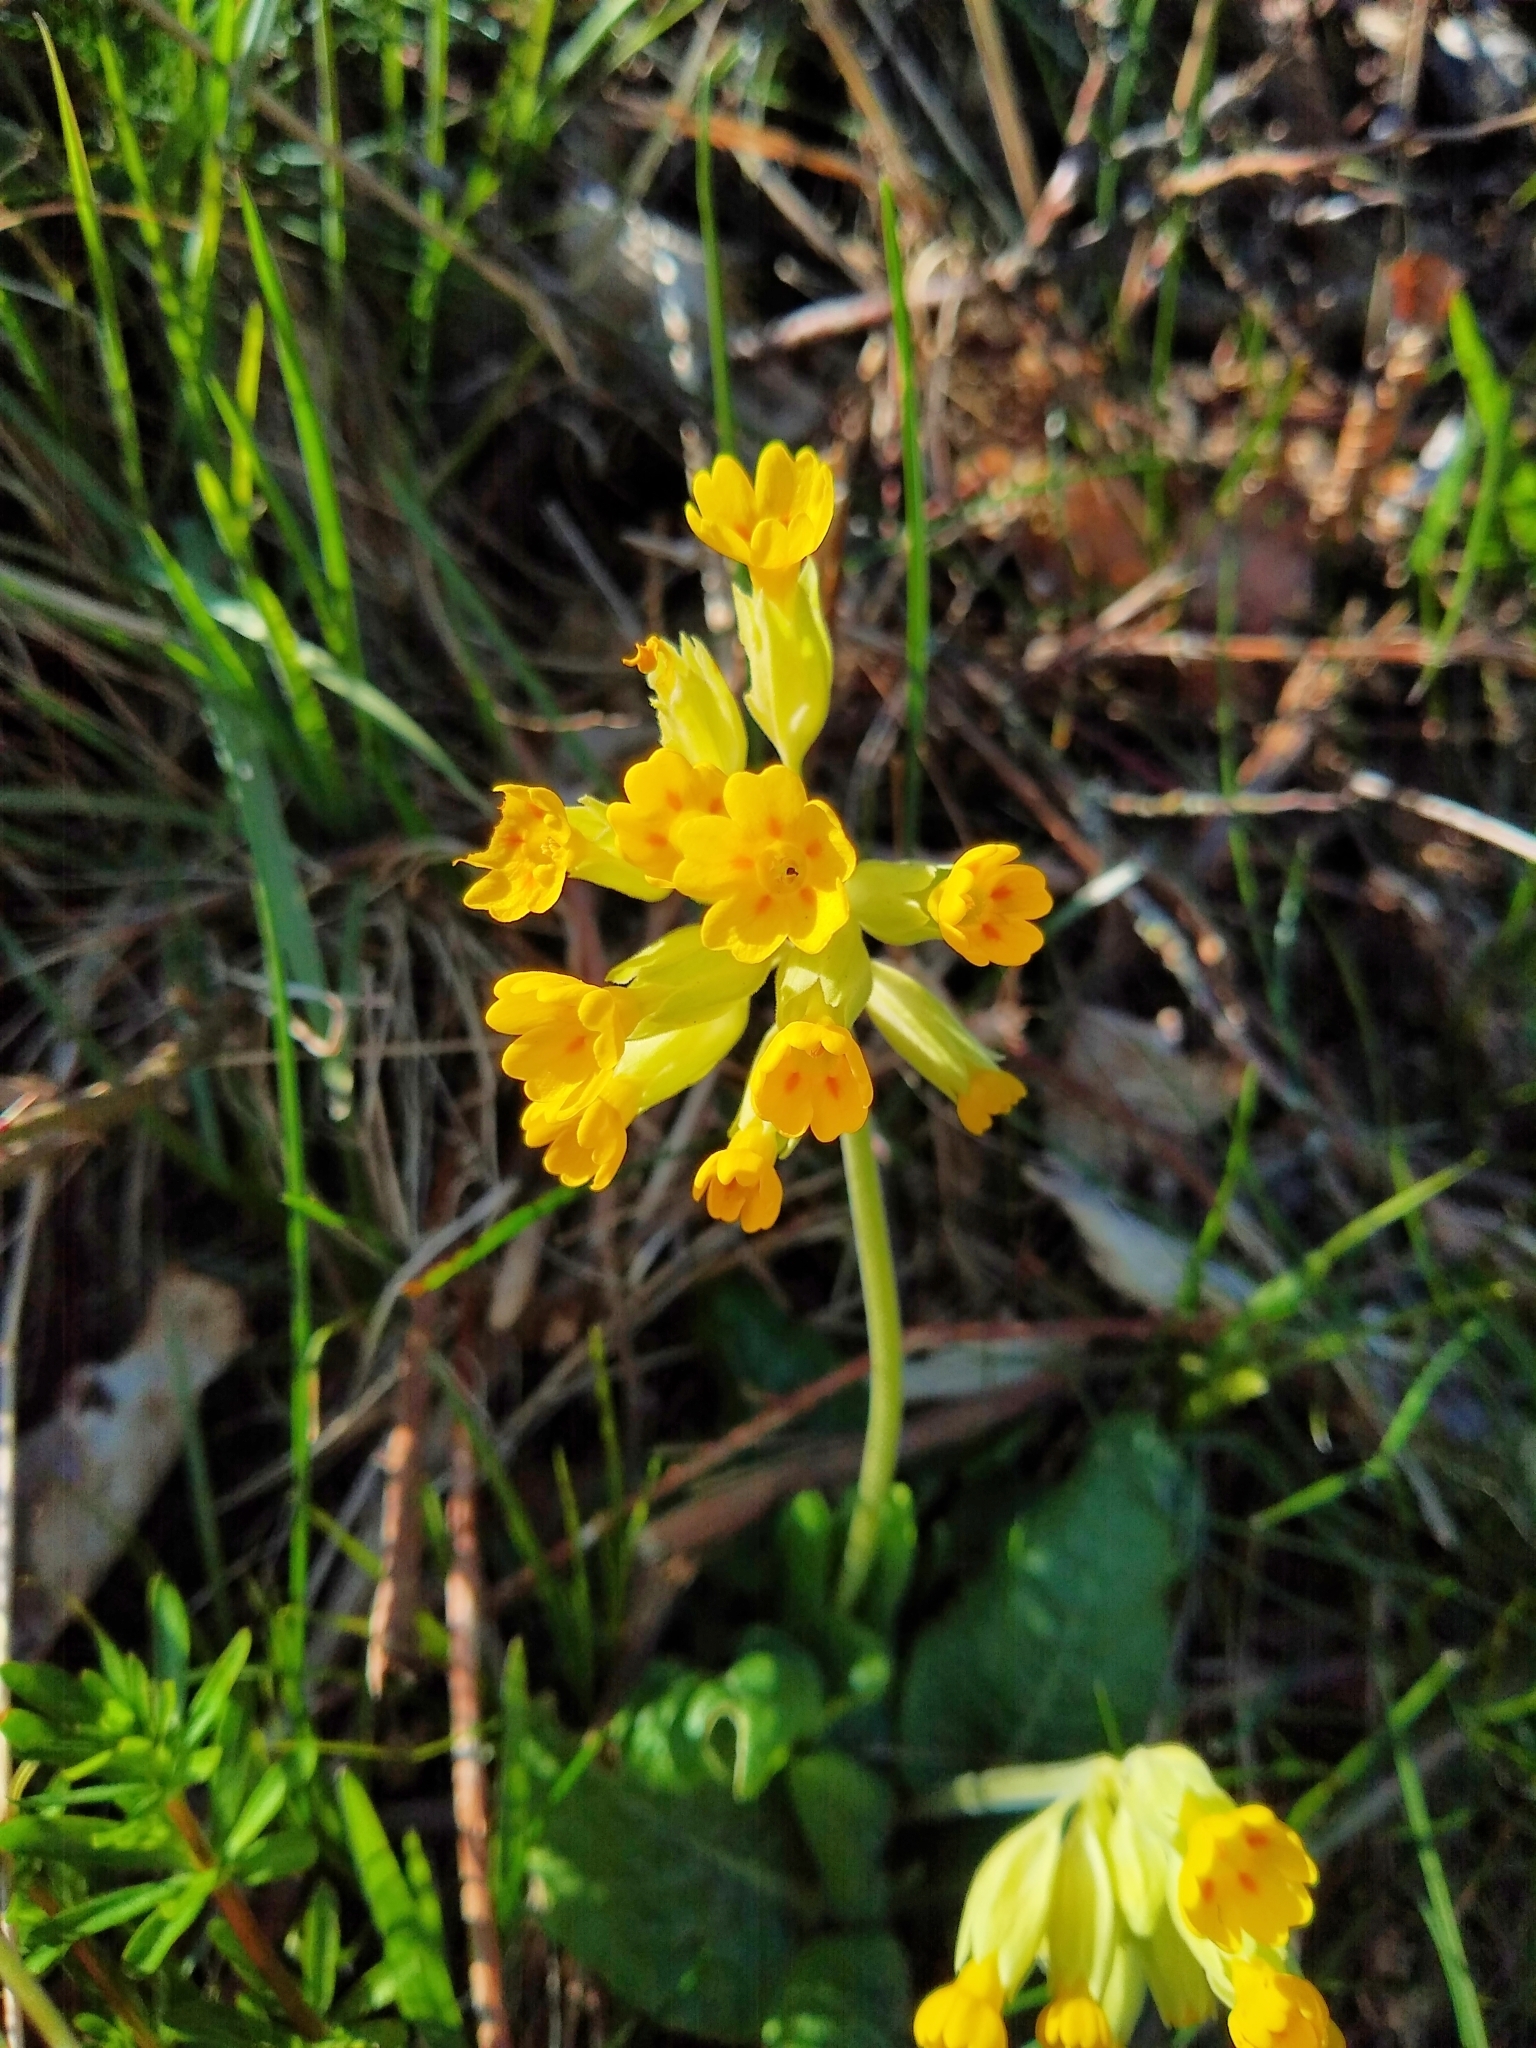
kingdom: Plantae
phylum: Tracheophyta
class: Magnoliopsida
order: Ericales
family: Primulaceae
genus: Primula
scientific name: Primula veris
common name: Cowslip
